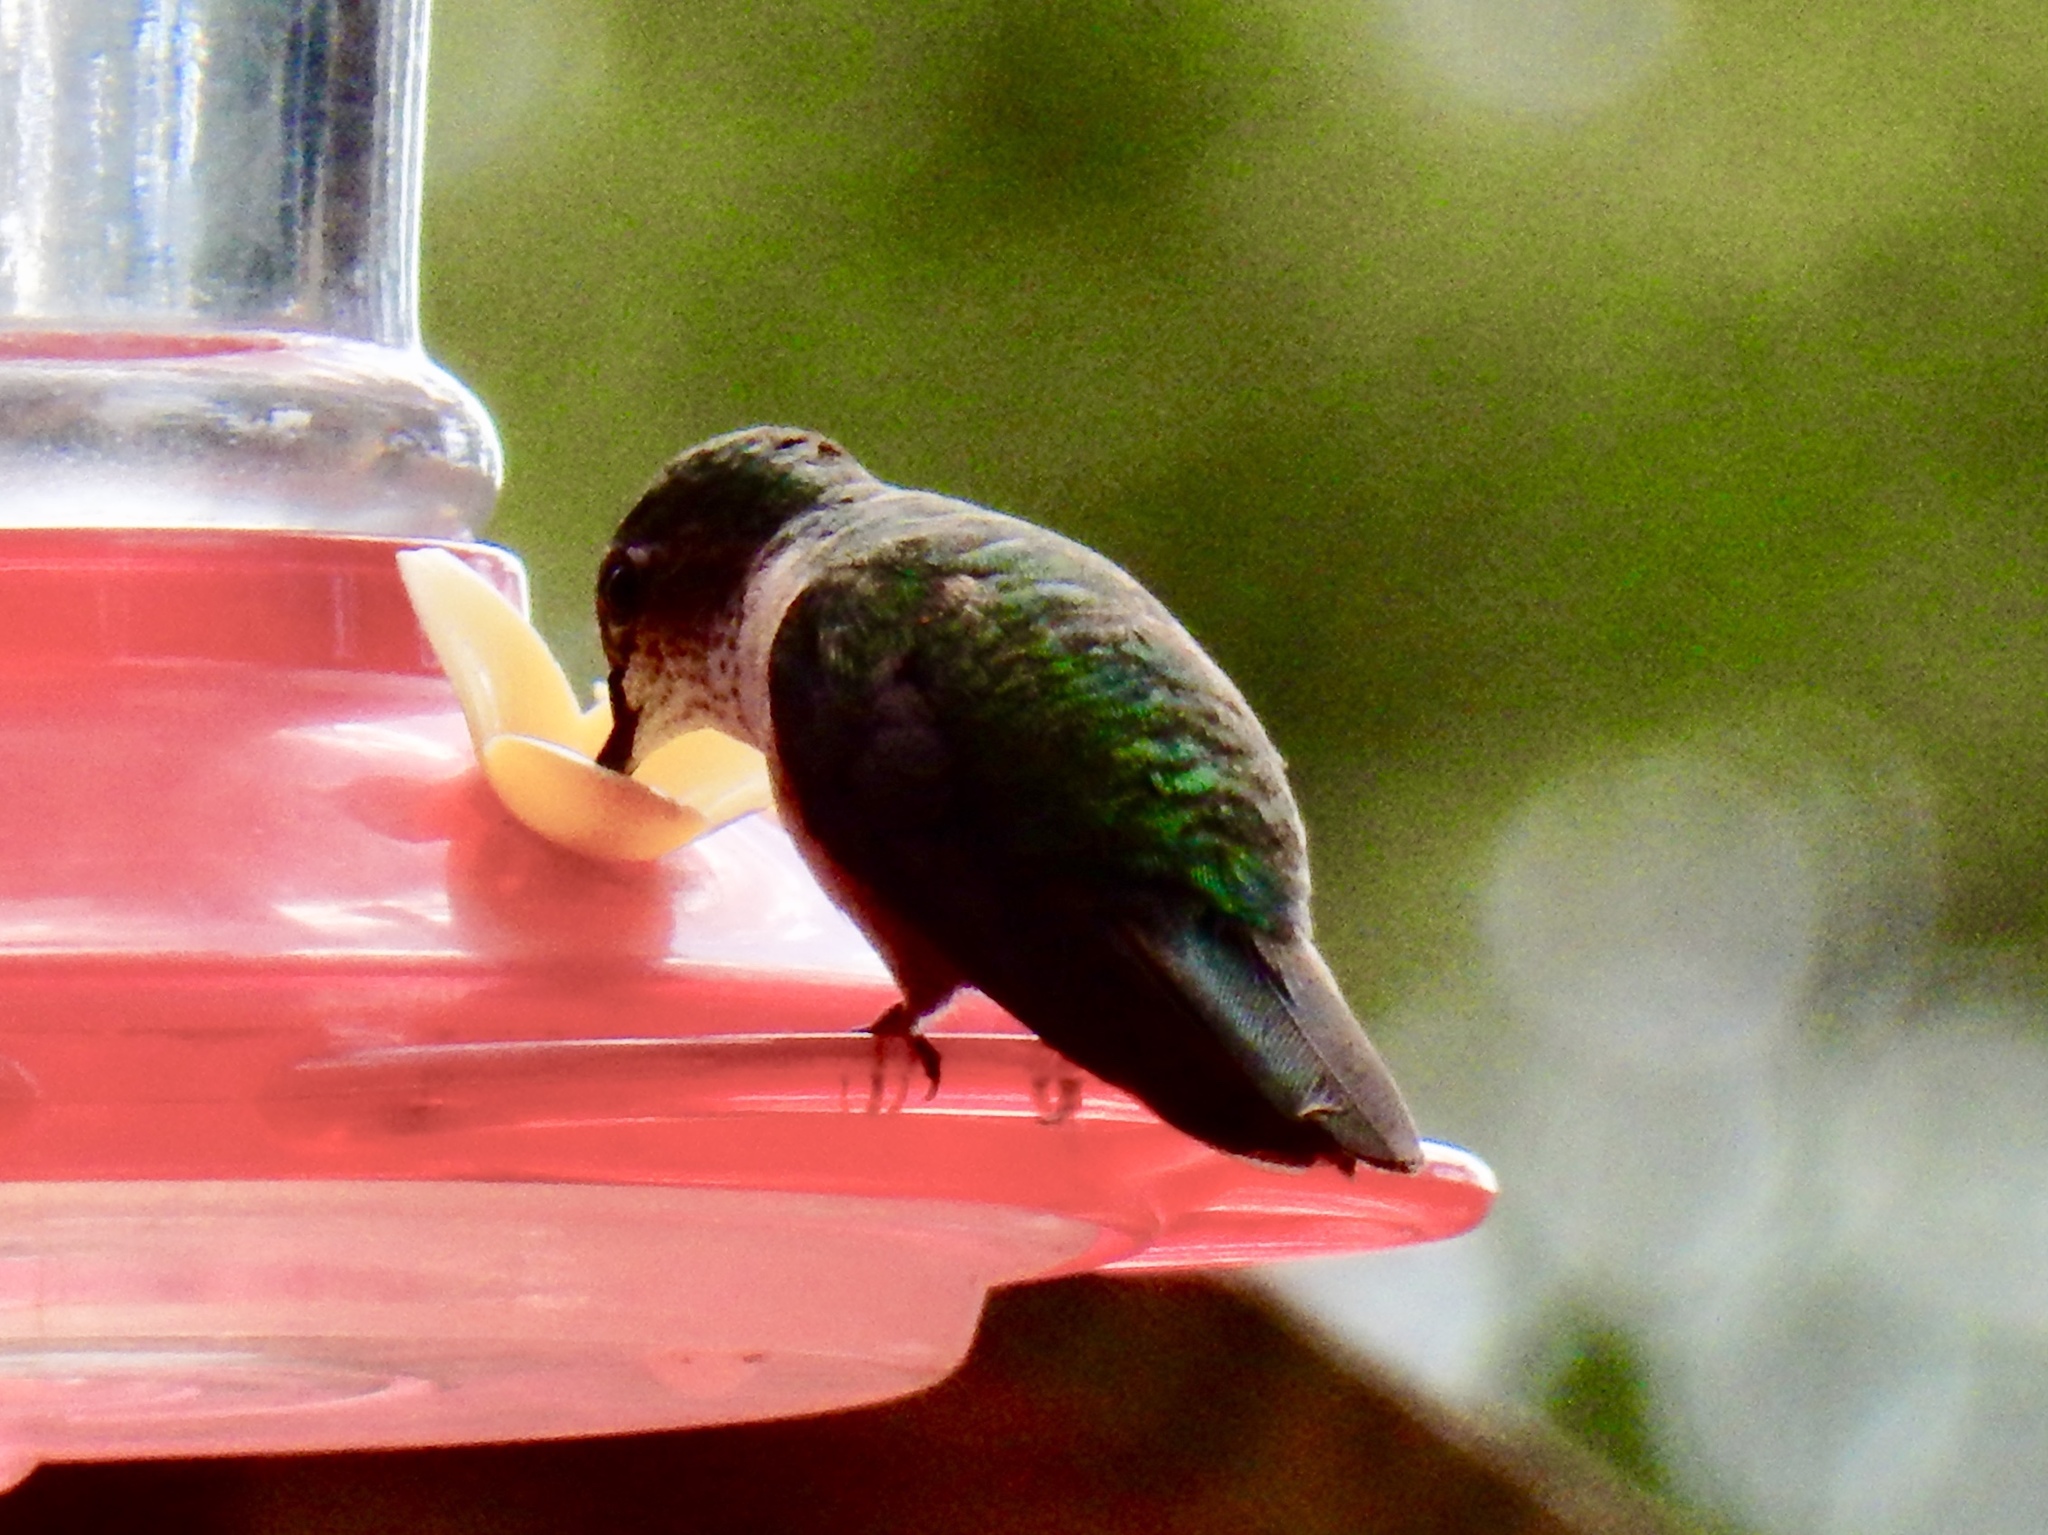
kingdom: Animalia
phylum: Chordata
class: Aves
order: Apodiformes
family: Trochilidae
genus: Selasphorus
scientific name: Selasphorus platycercus
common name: Broad-tailed hummingbird
